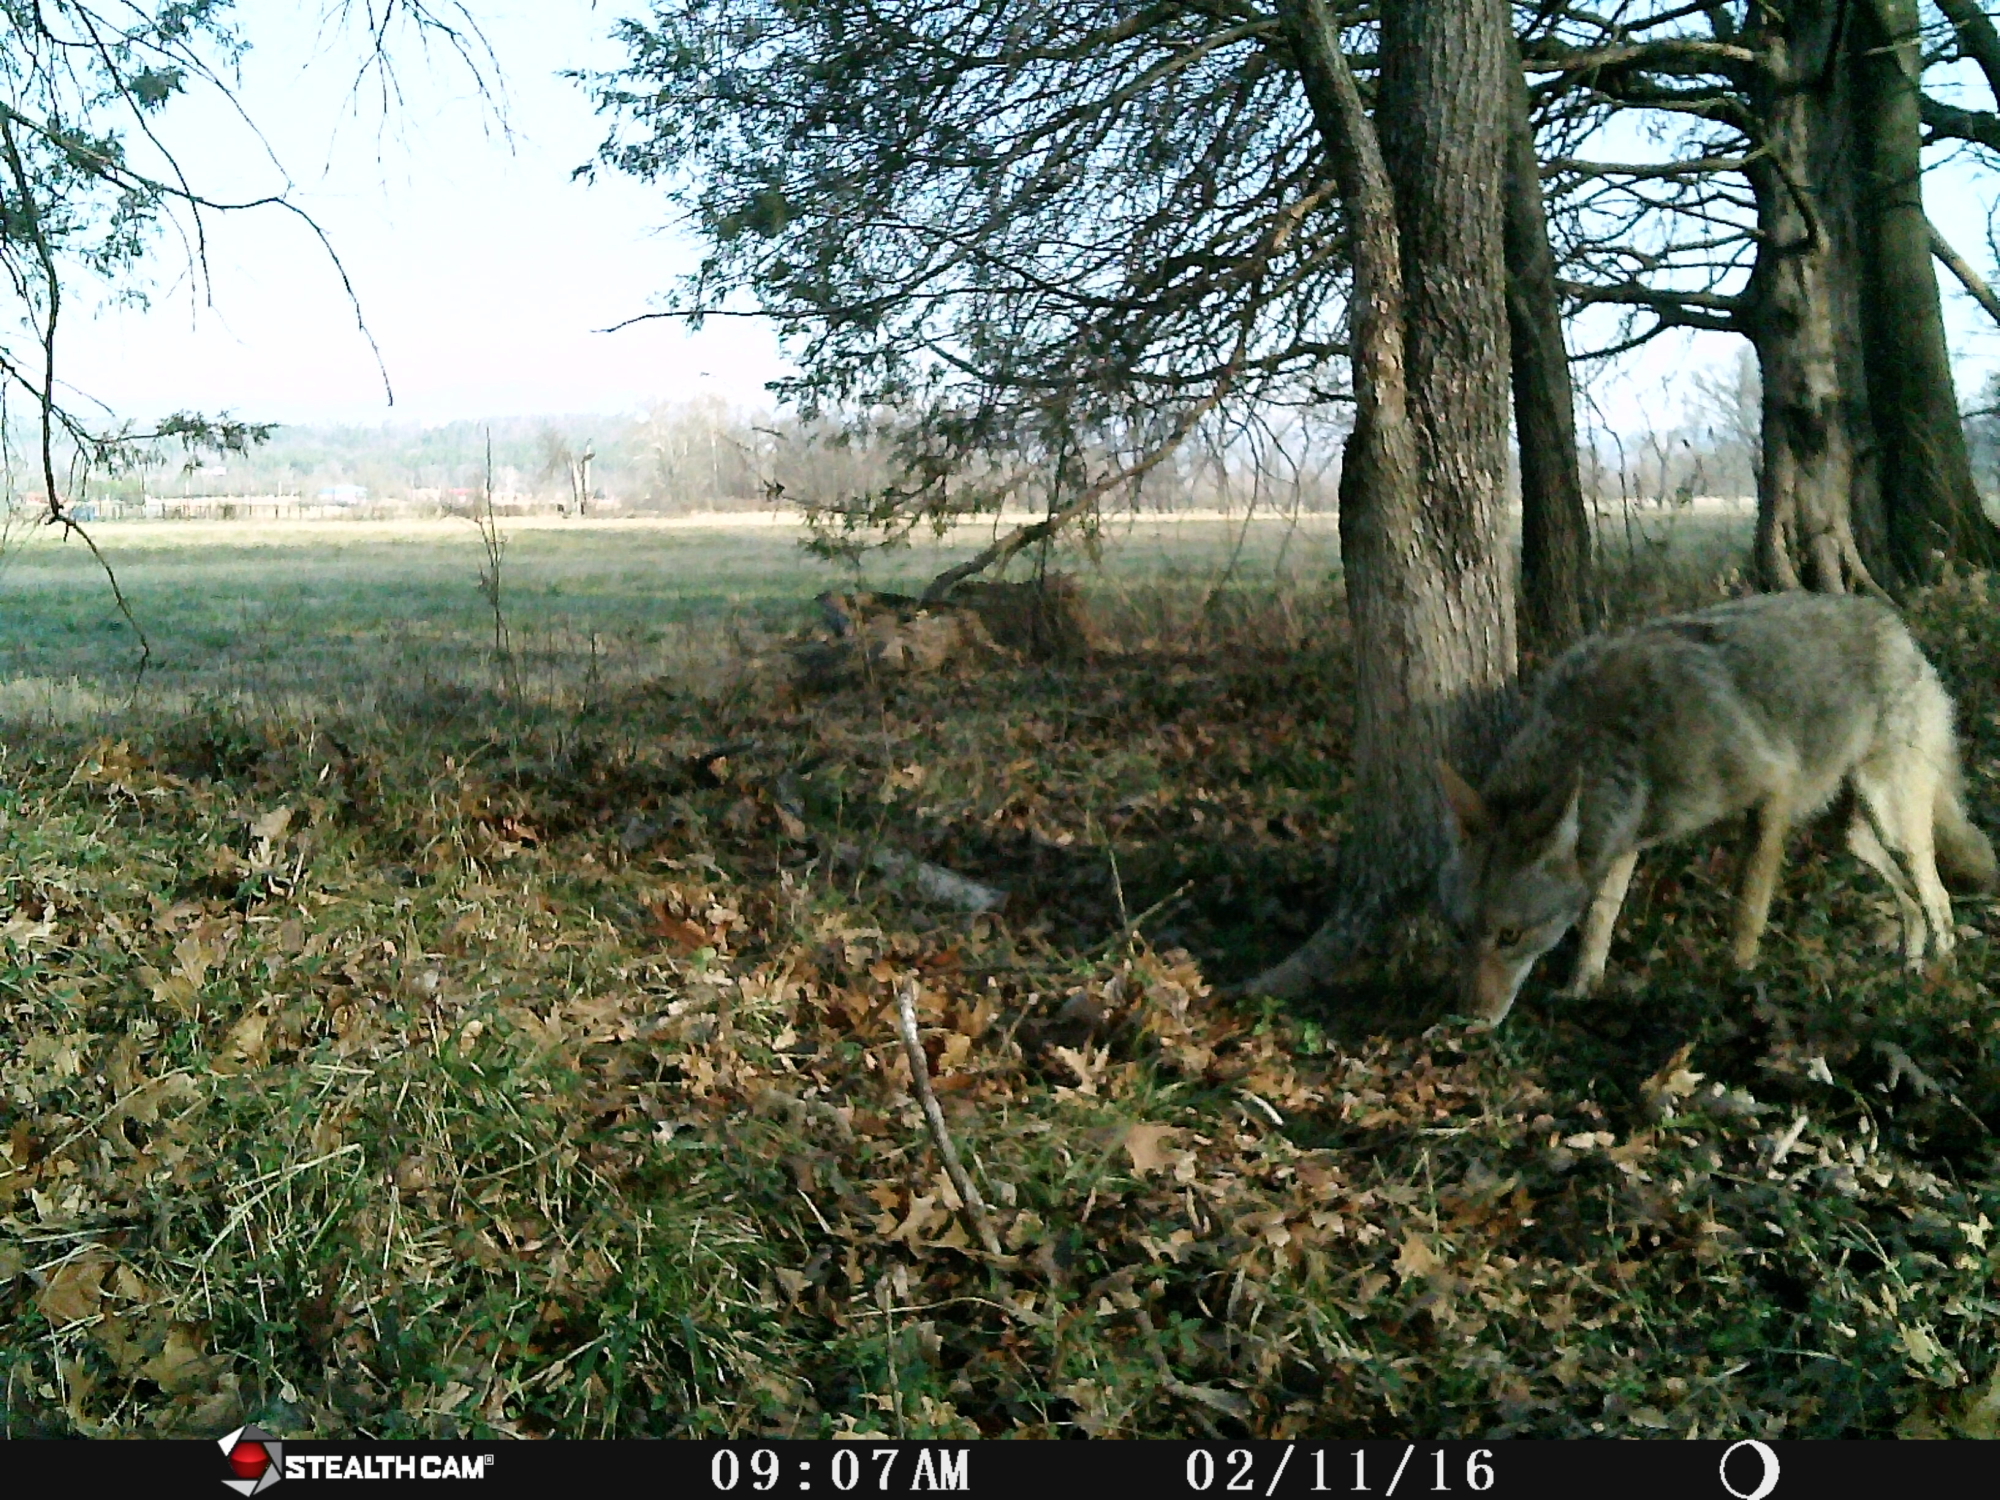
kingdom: Animalia
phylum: Chordata
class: Mammalia
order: Carnivora
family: Canidae
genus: Canis
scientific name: Canis latrans
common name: Coyote
